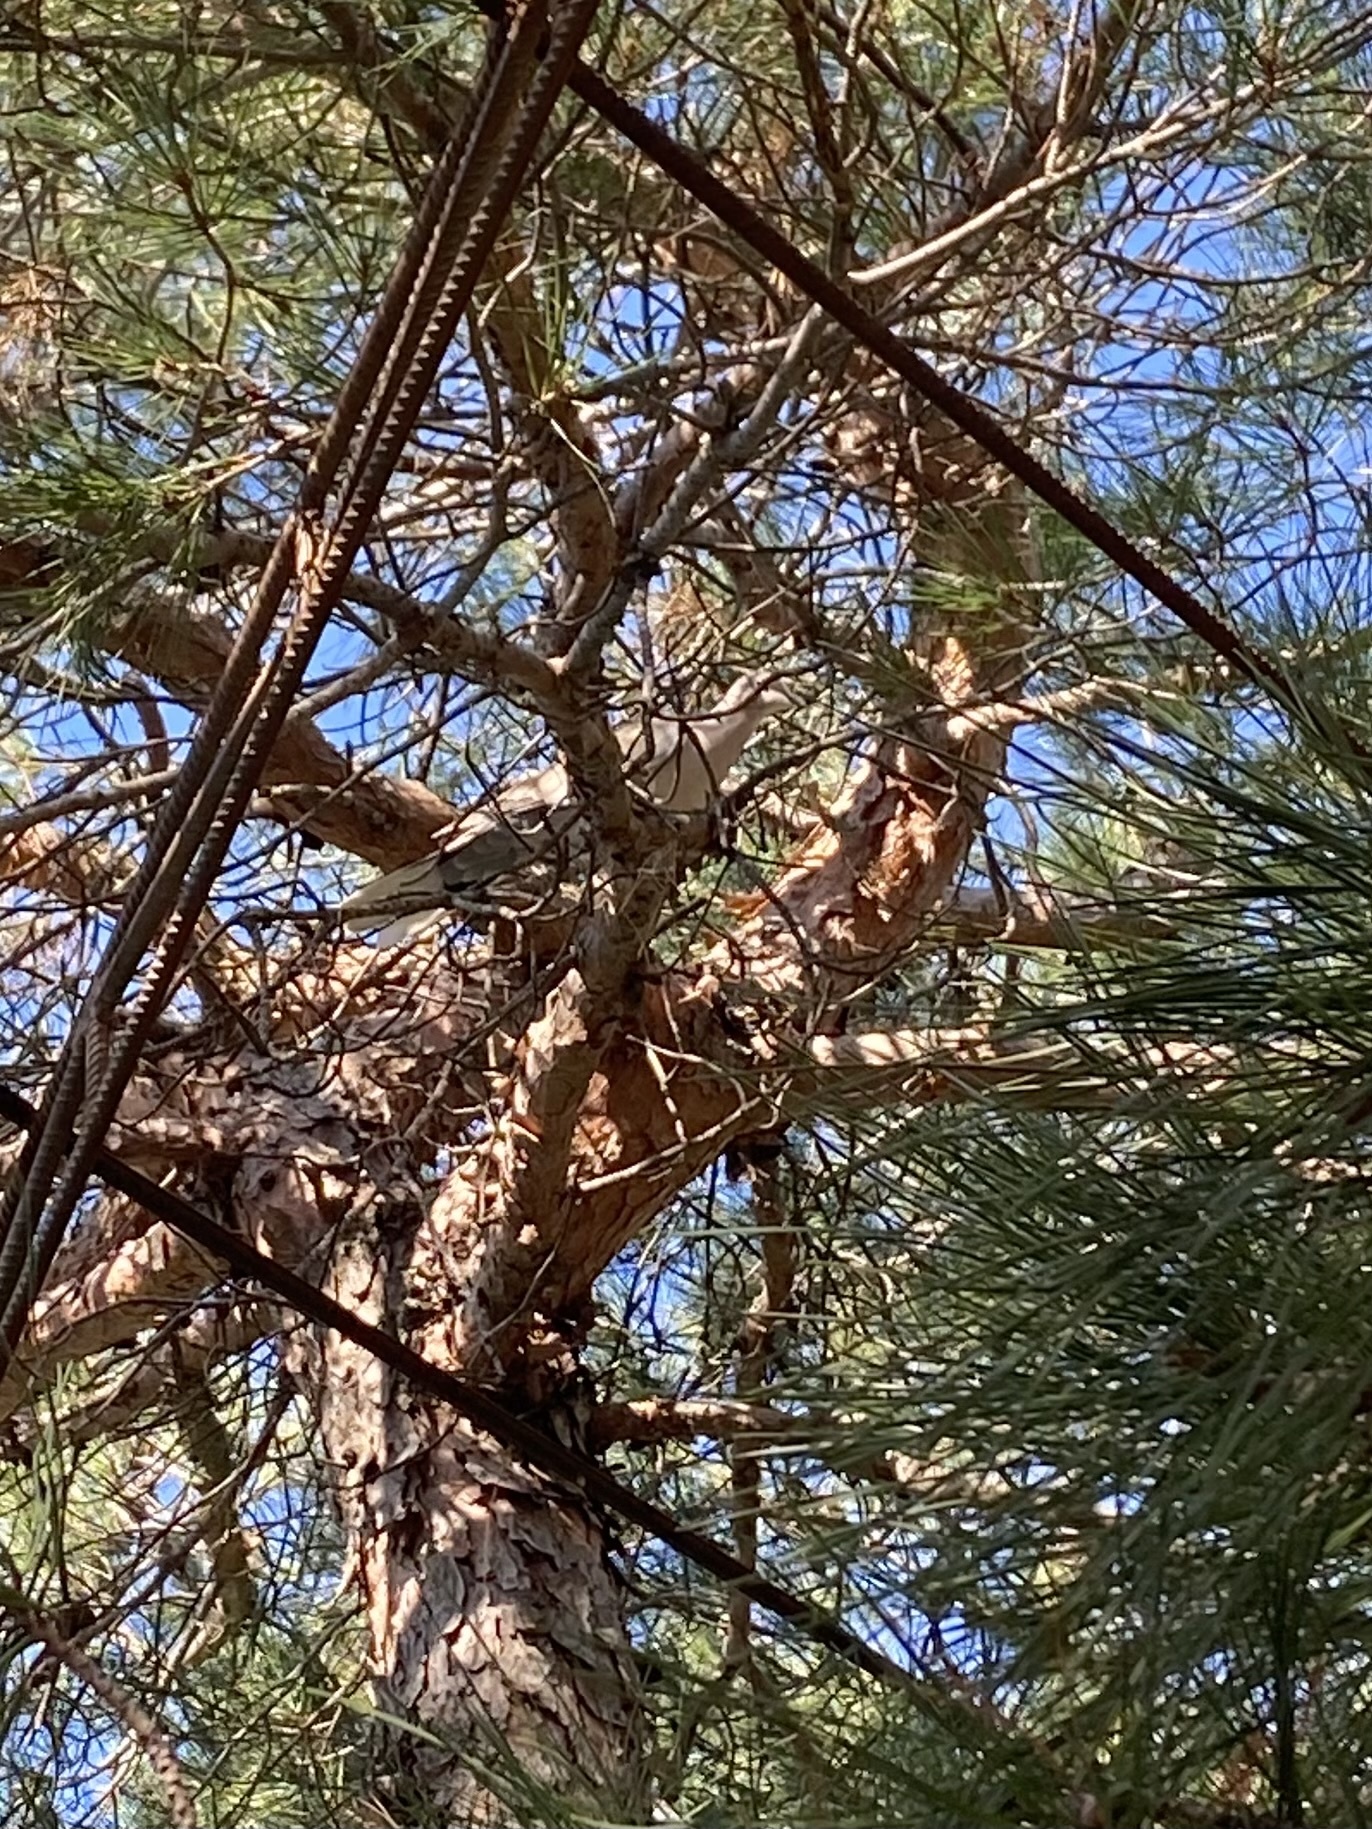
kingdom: Animalia
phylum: Chordata
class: Aves
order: Columbiformes
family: Columbidae
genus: Streptopelia
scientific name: Streptopelia decaocto
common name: Eurasian collared dove
